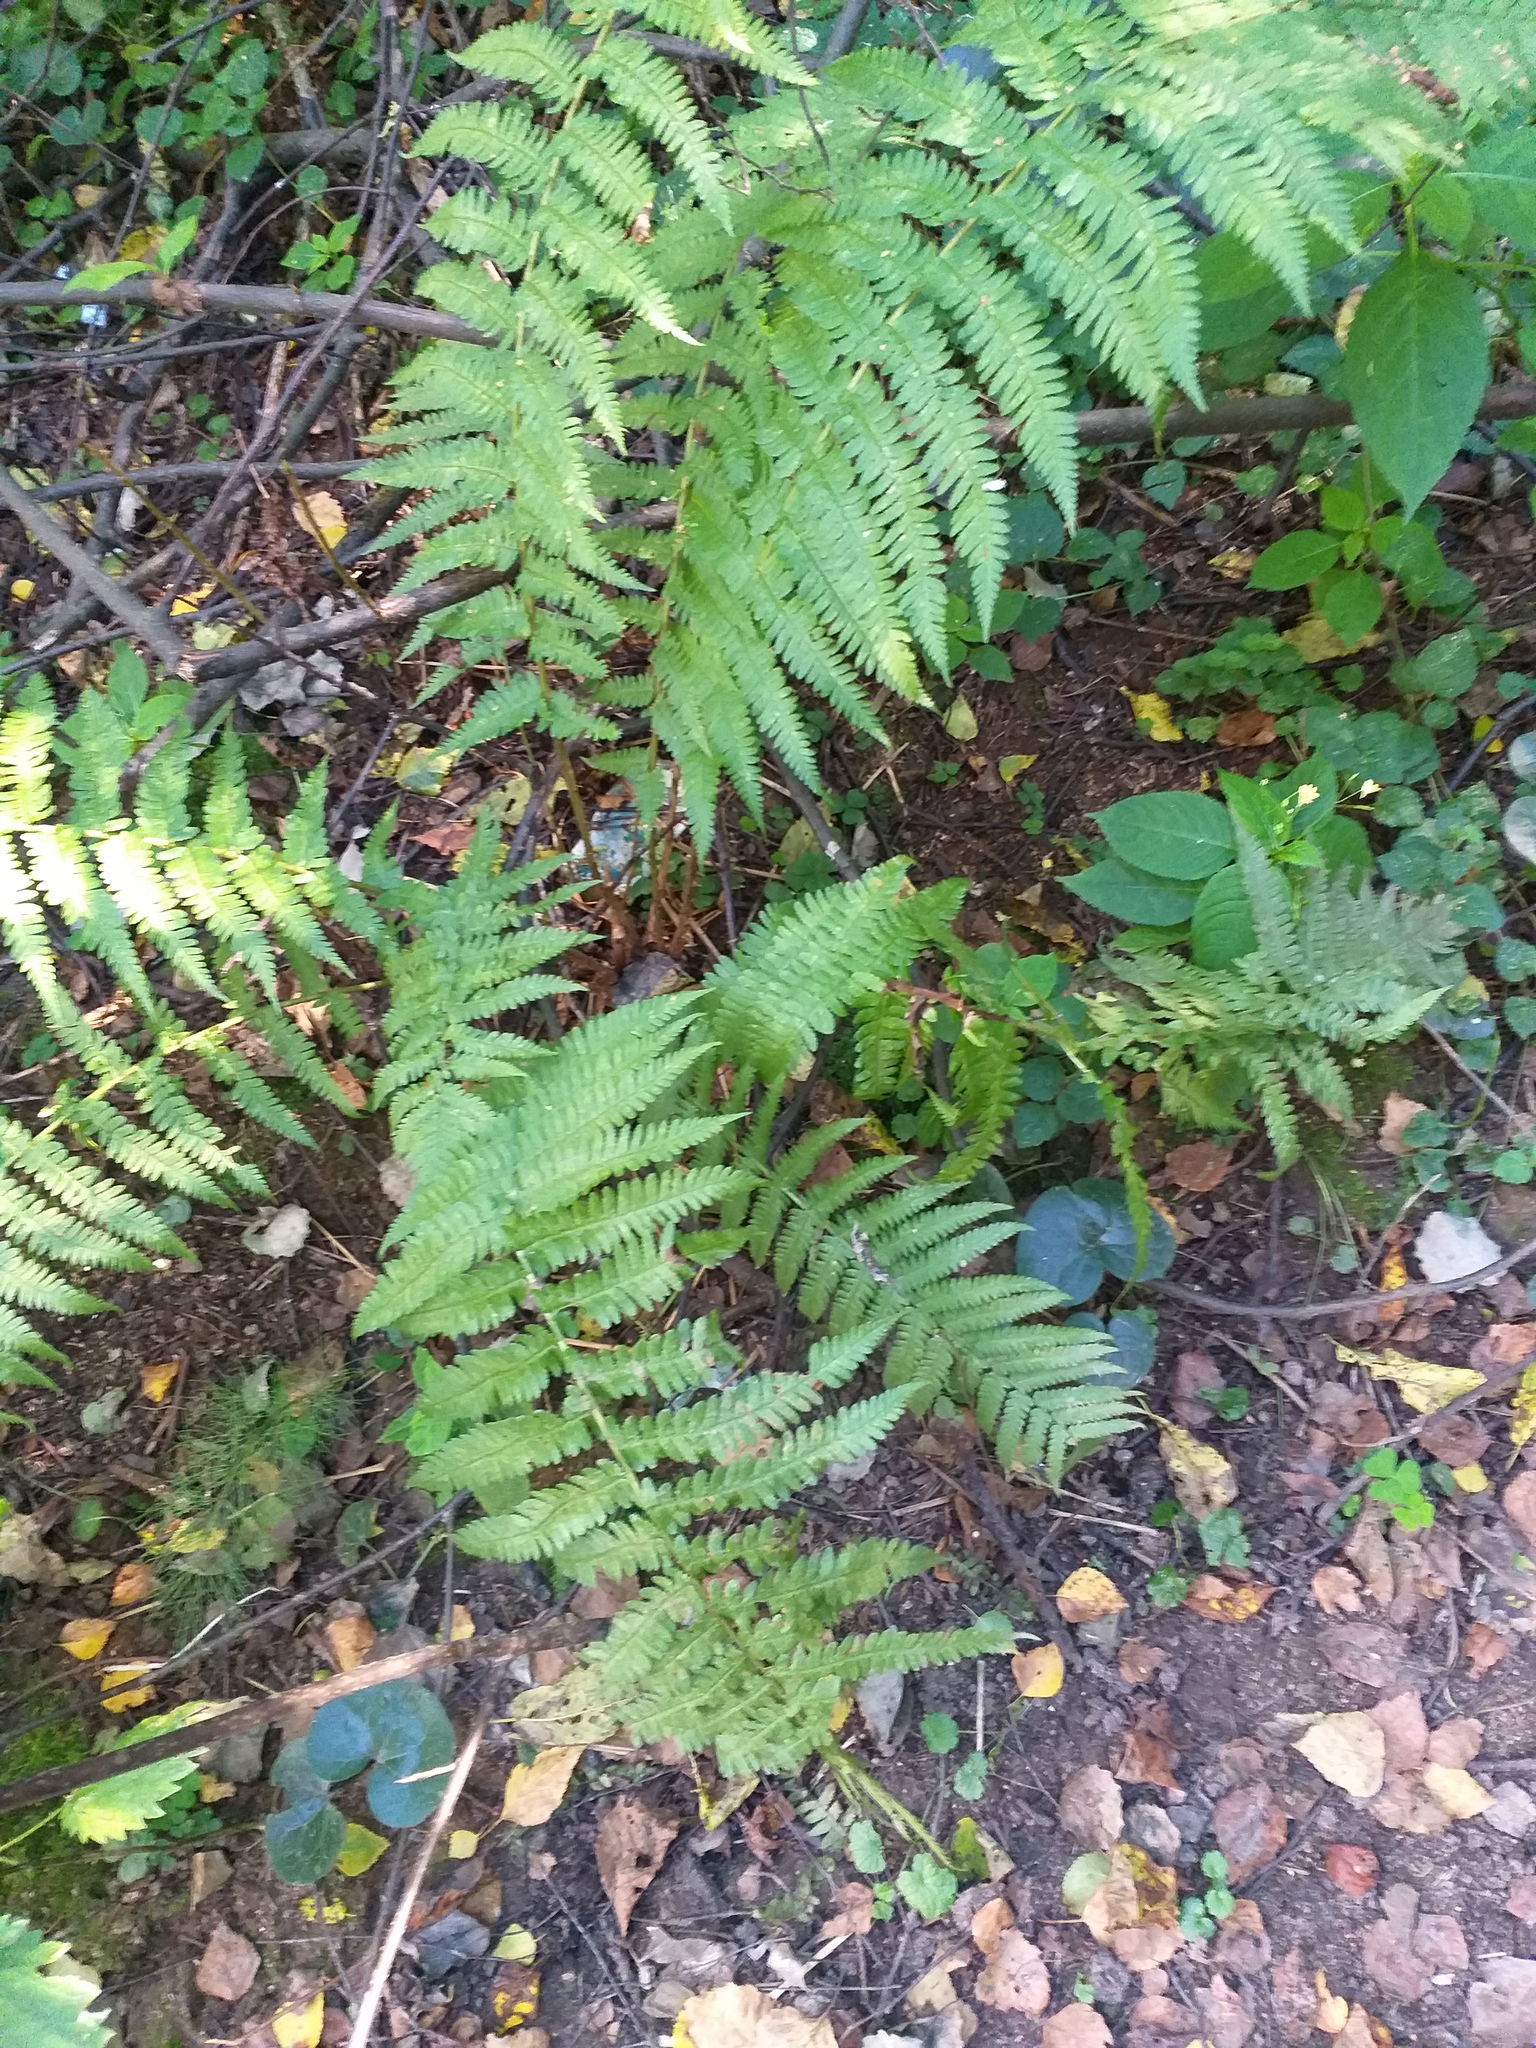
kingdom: Plantae
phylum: Tracheophyta
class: Polypodiopsida
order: Polypodiales
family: Dryopteridaceae
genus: Dryopteris
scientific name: Dryopteris filix-mas
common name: Male fern
